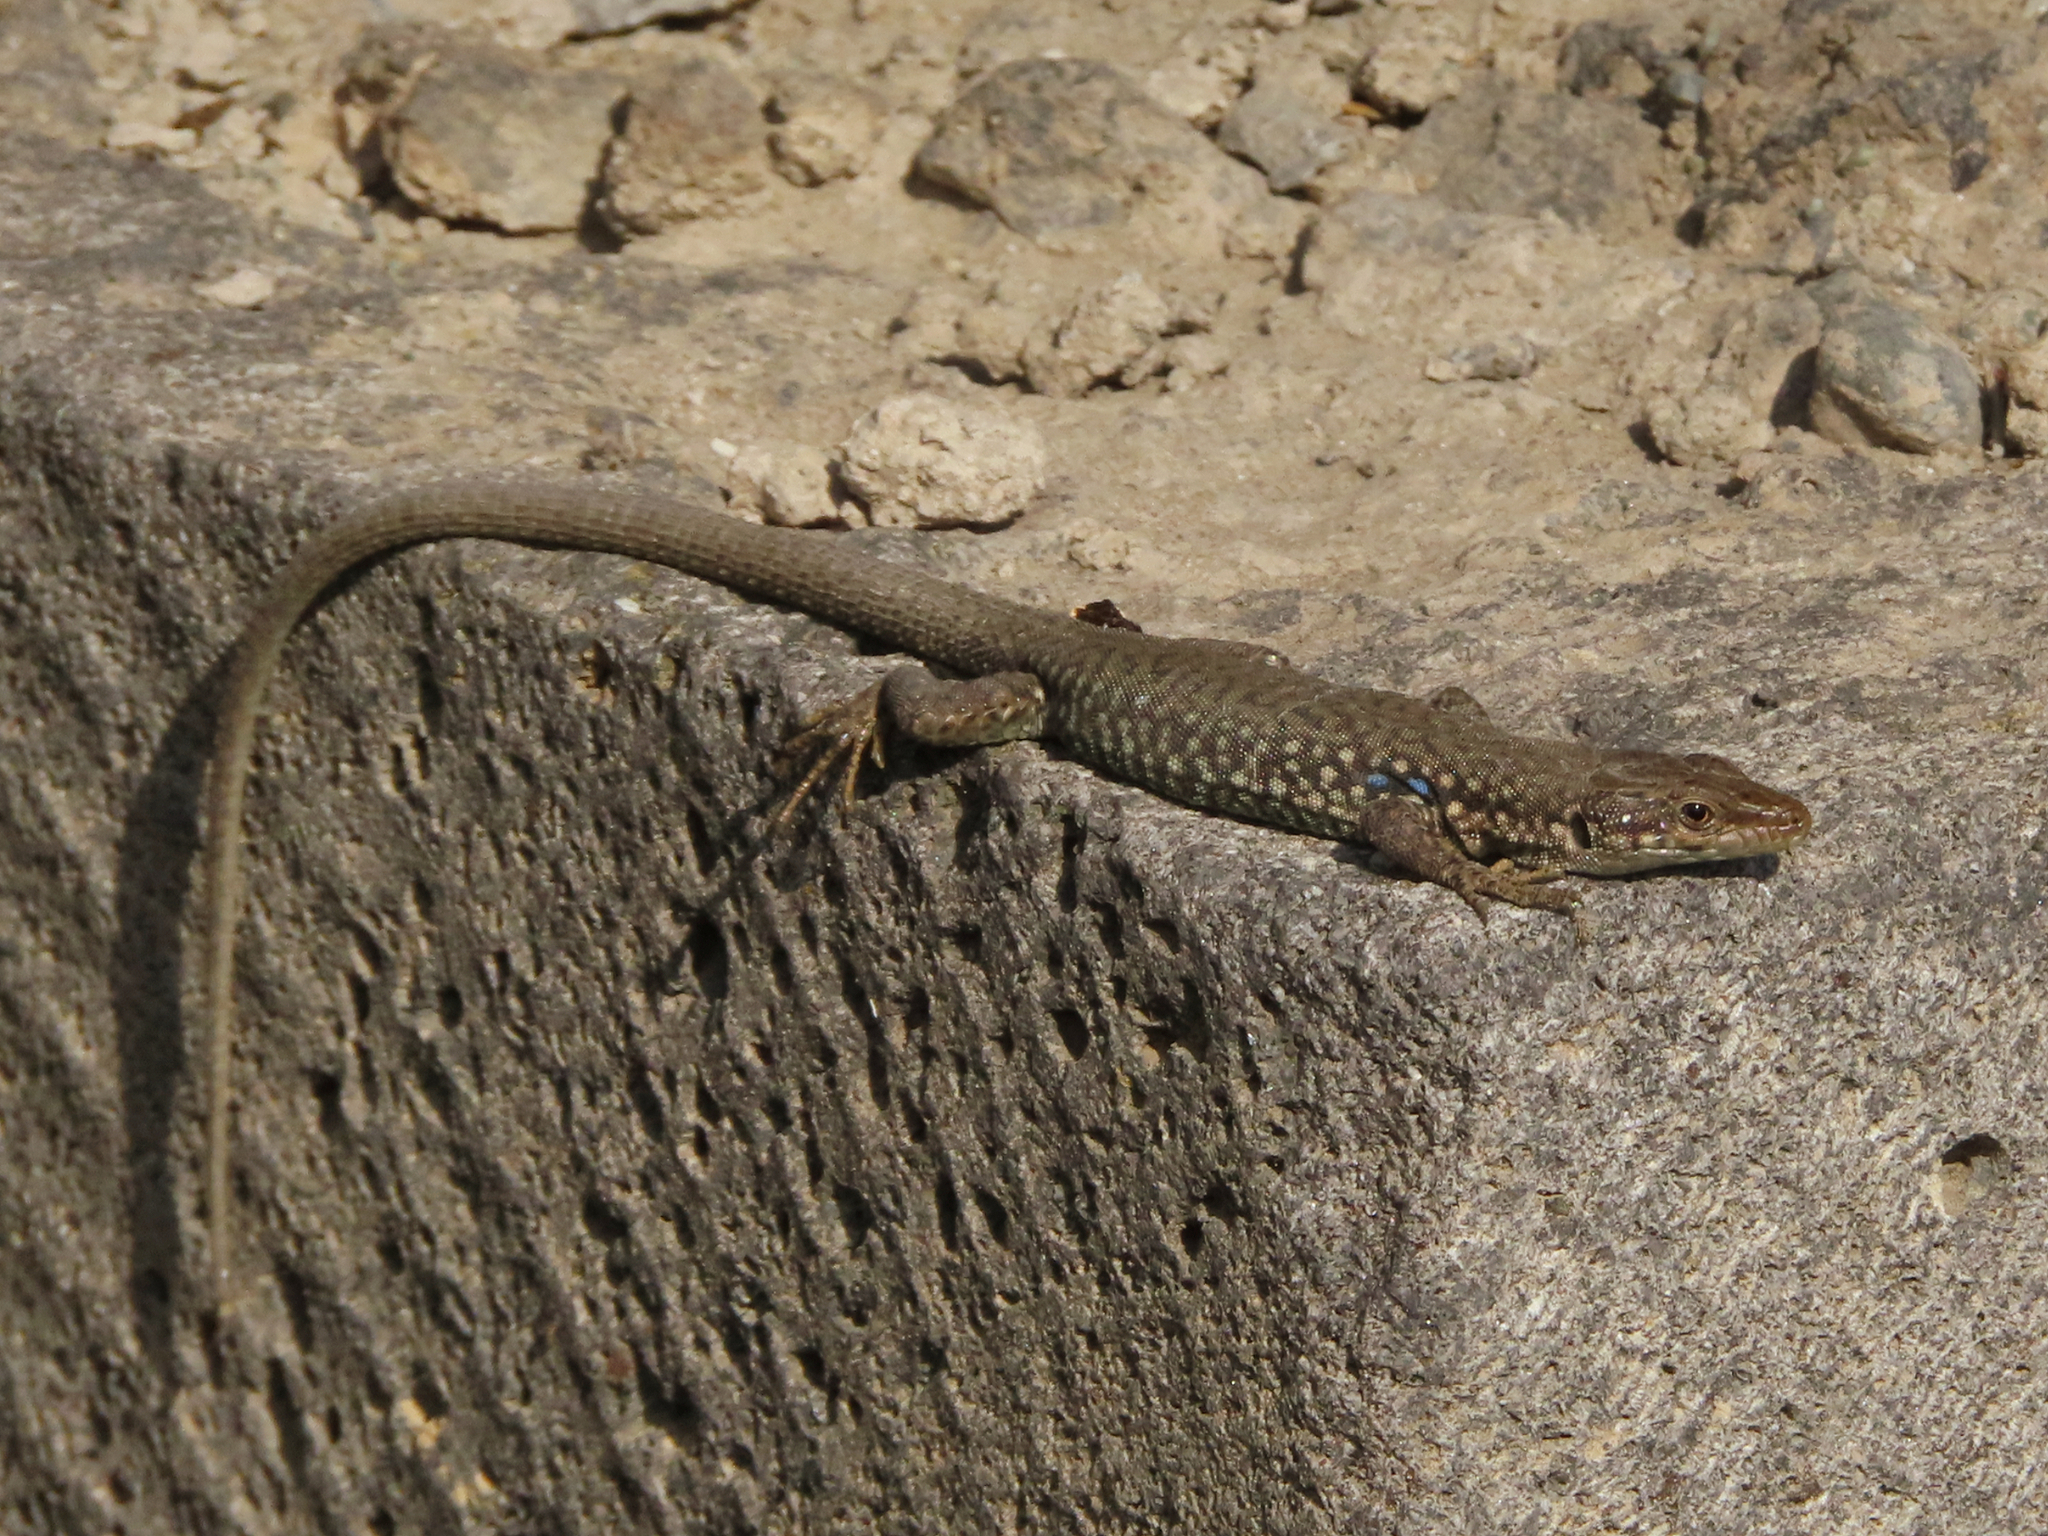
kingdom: Animalia
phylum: Chordata
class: Squamata
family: Lacertidae
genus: Darevskia
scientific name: Darevskia
